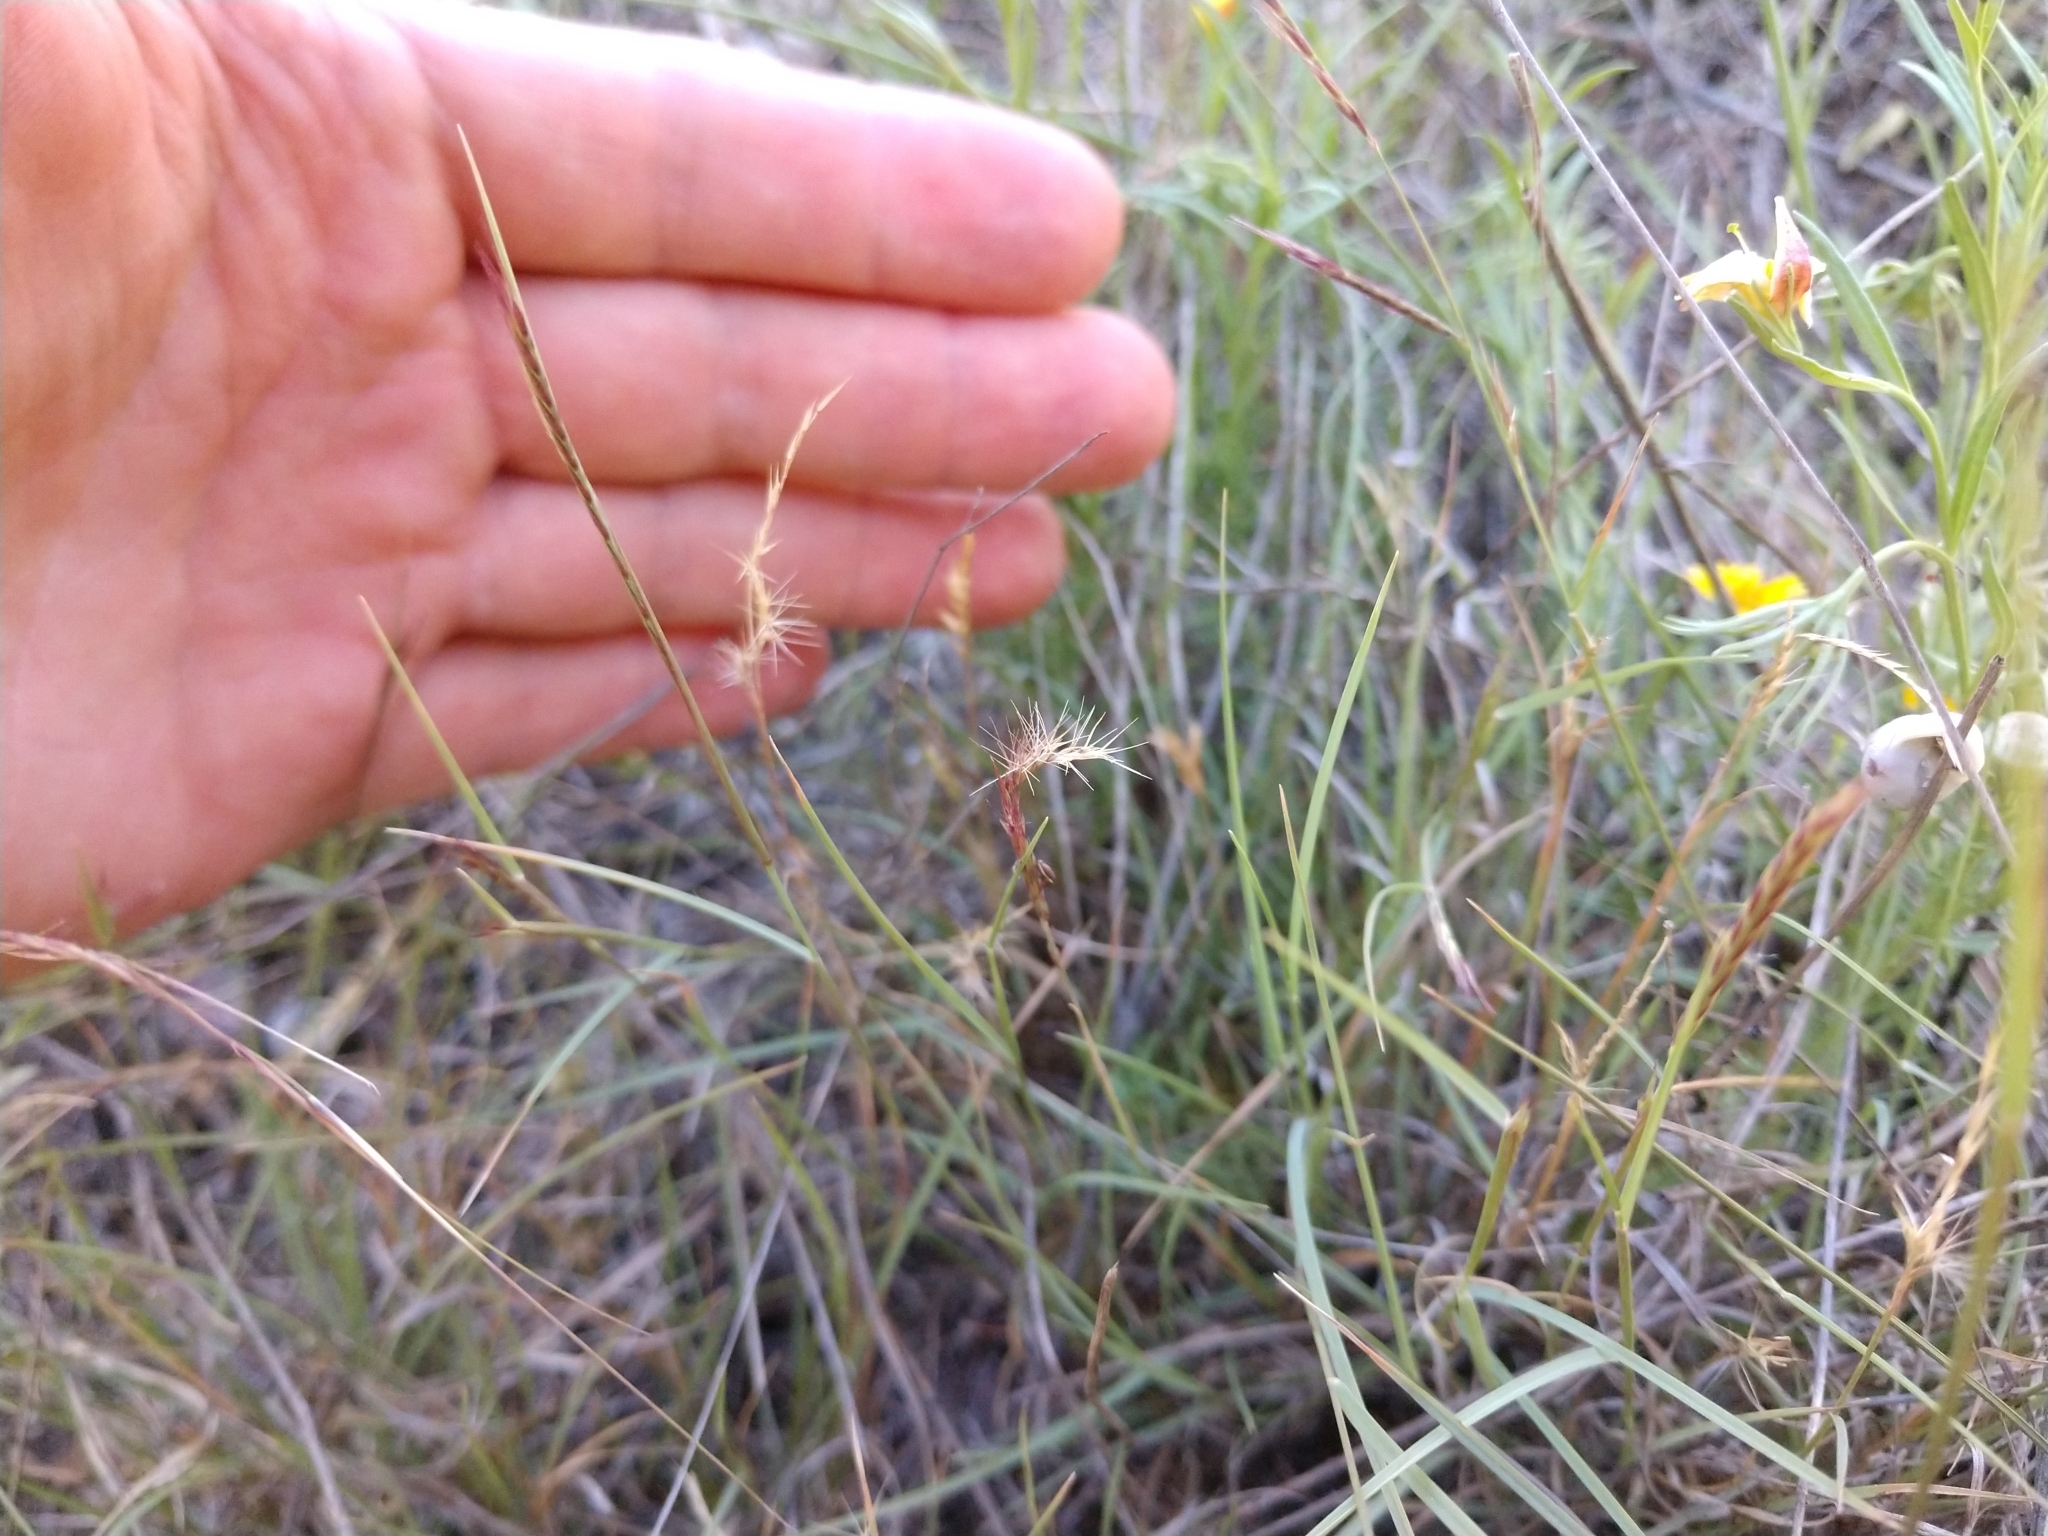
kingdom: Plantae
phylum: Tracheophyta
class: Liliopsida
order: Poales
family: Poaceae
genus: Bouteloua
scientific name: Bouteloua trifida
